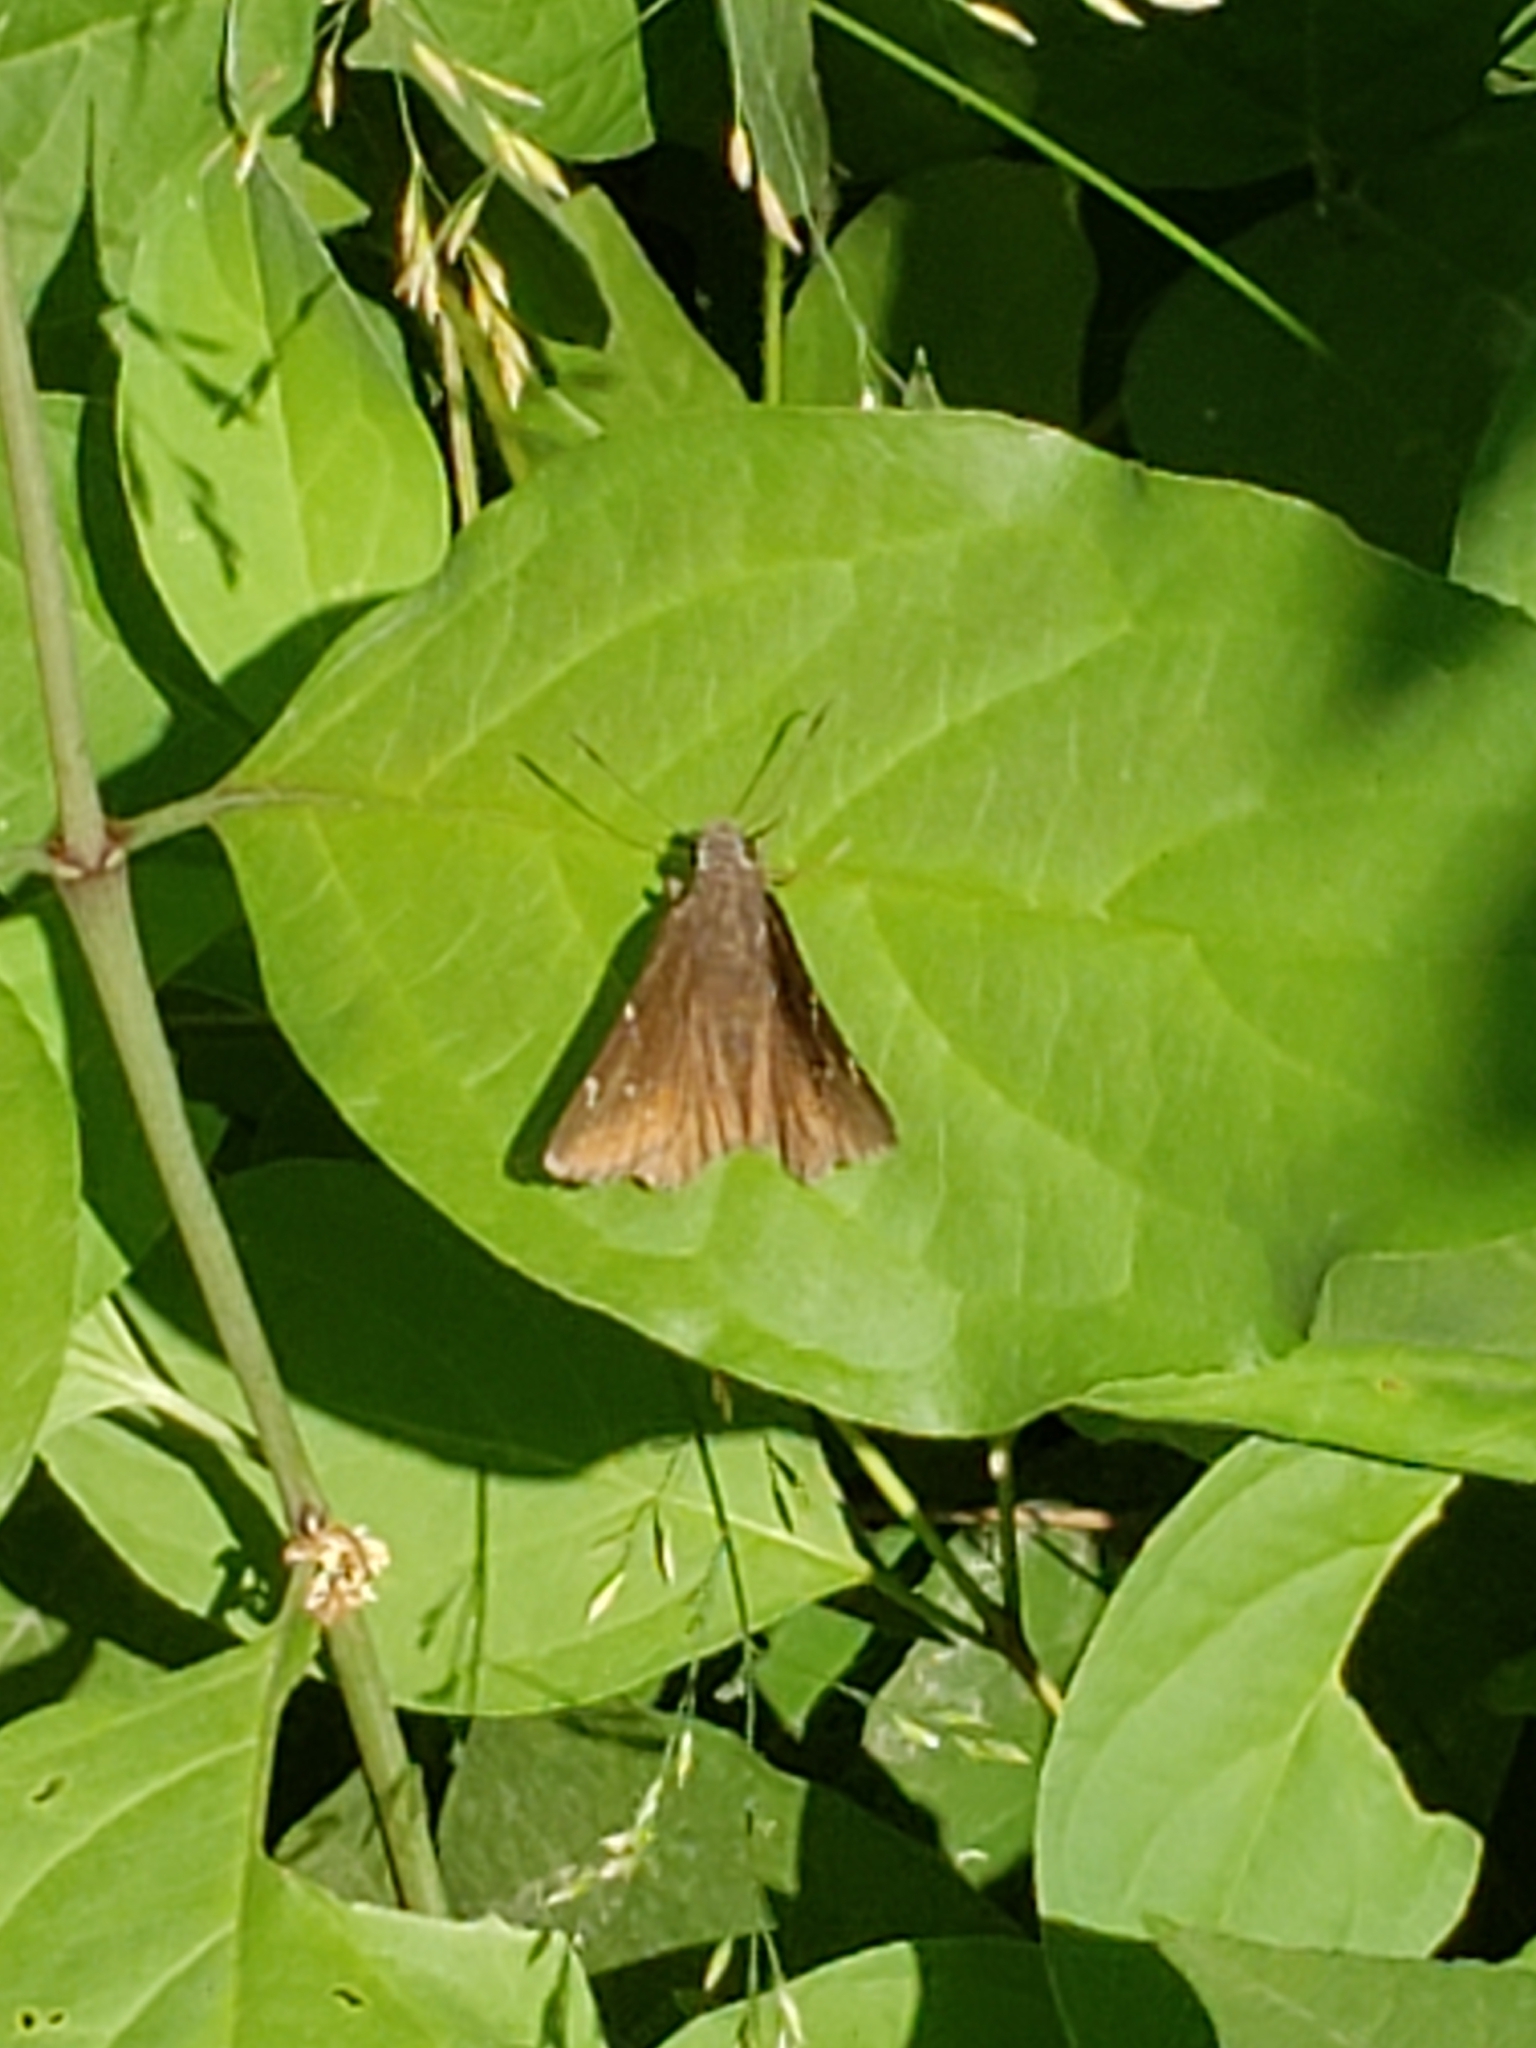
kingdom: Animalia
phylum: Arthropoda
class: Insecta
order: Lepidoptera
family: Hesperiidae
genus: Thorybes
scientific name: Thorybes pylades
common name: Northern cloudywing
